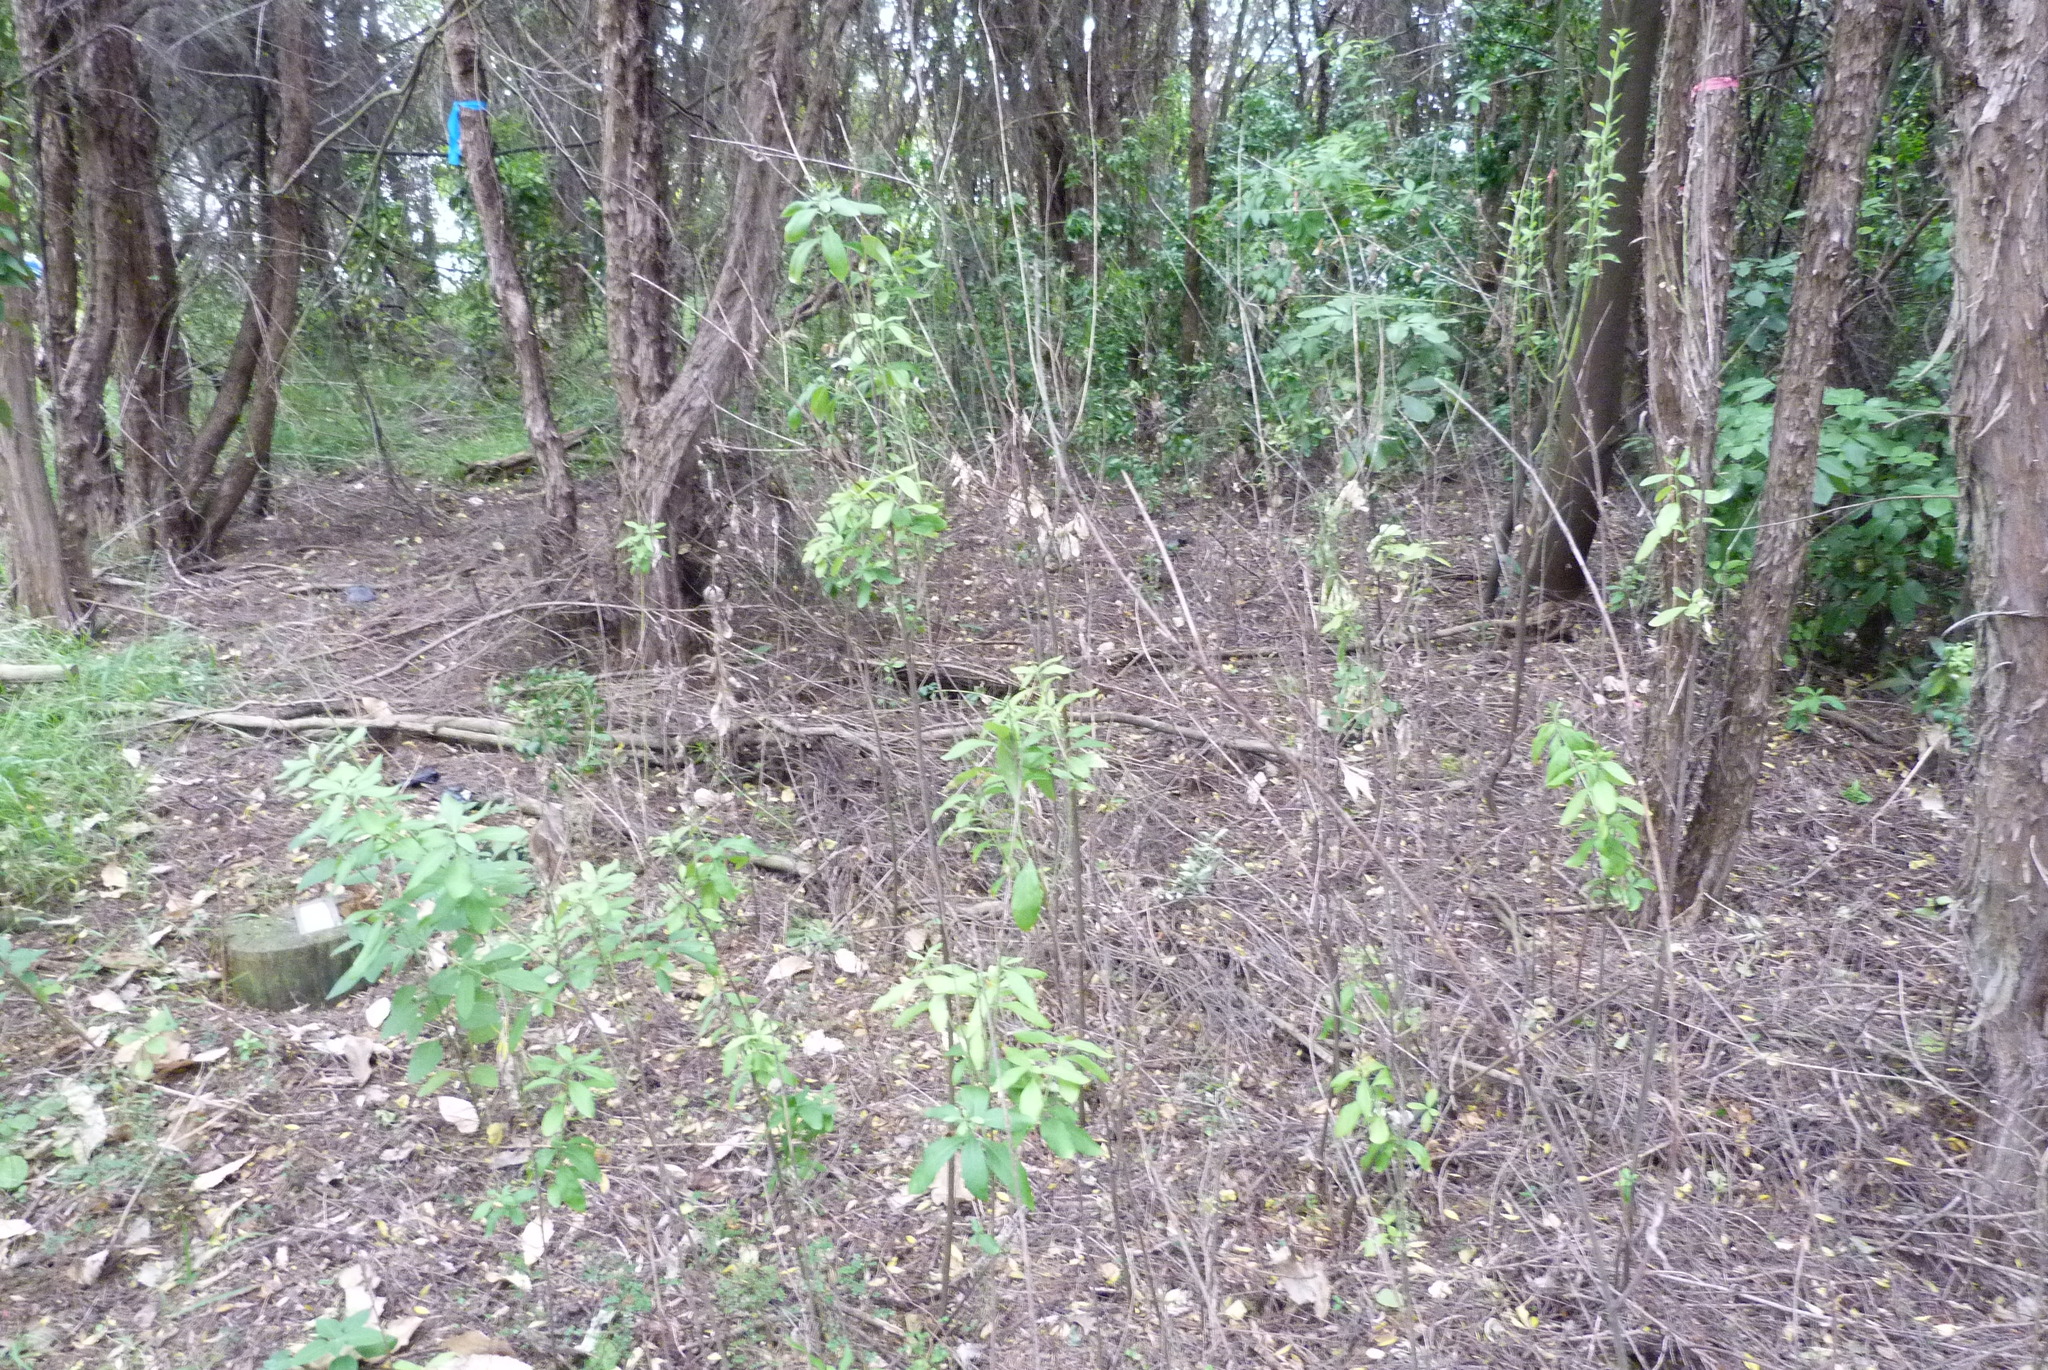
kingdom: Plantae
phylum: Tracheophyta
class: Magnoliopsida
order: Celastrales
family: Celastraceae
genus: Maytenus
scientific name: Maytenus boaria
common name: Mayten
